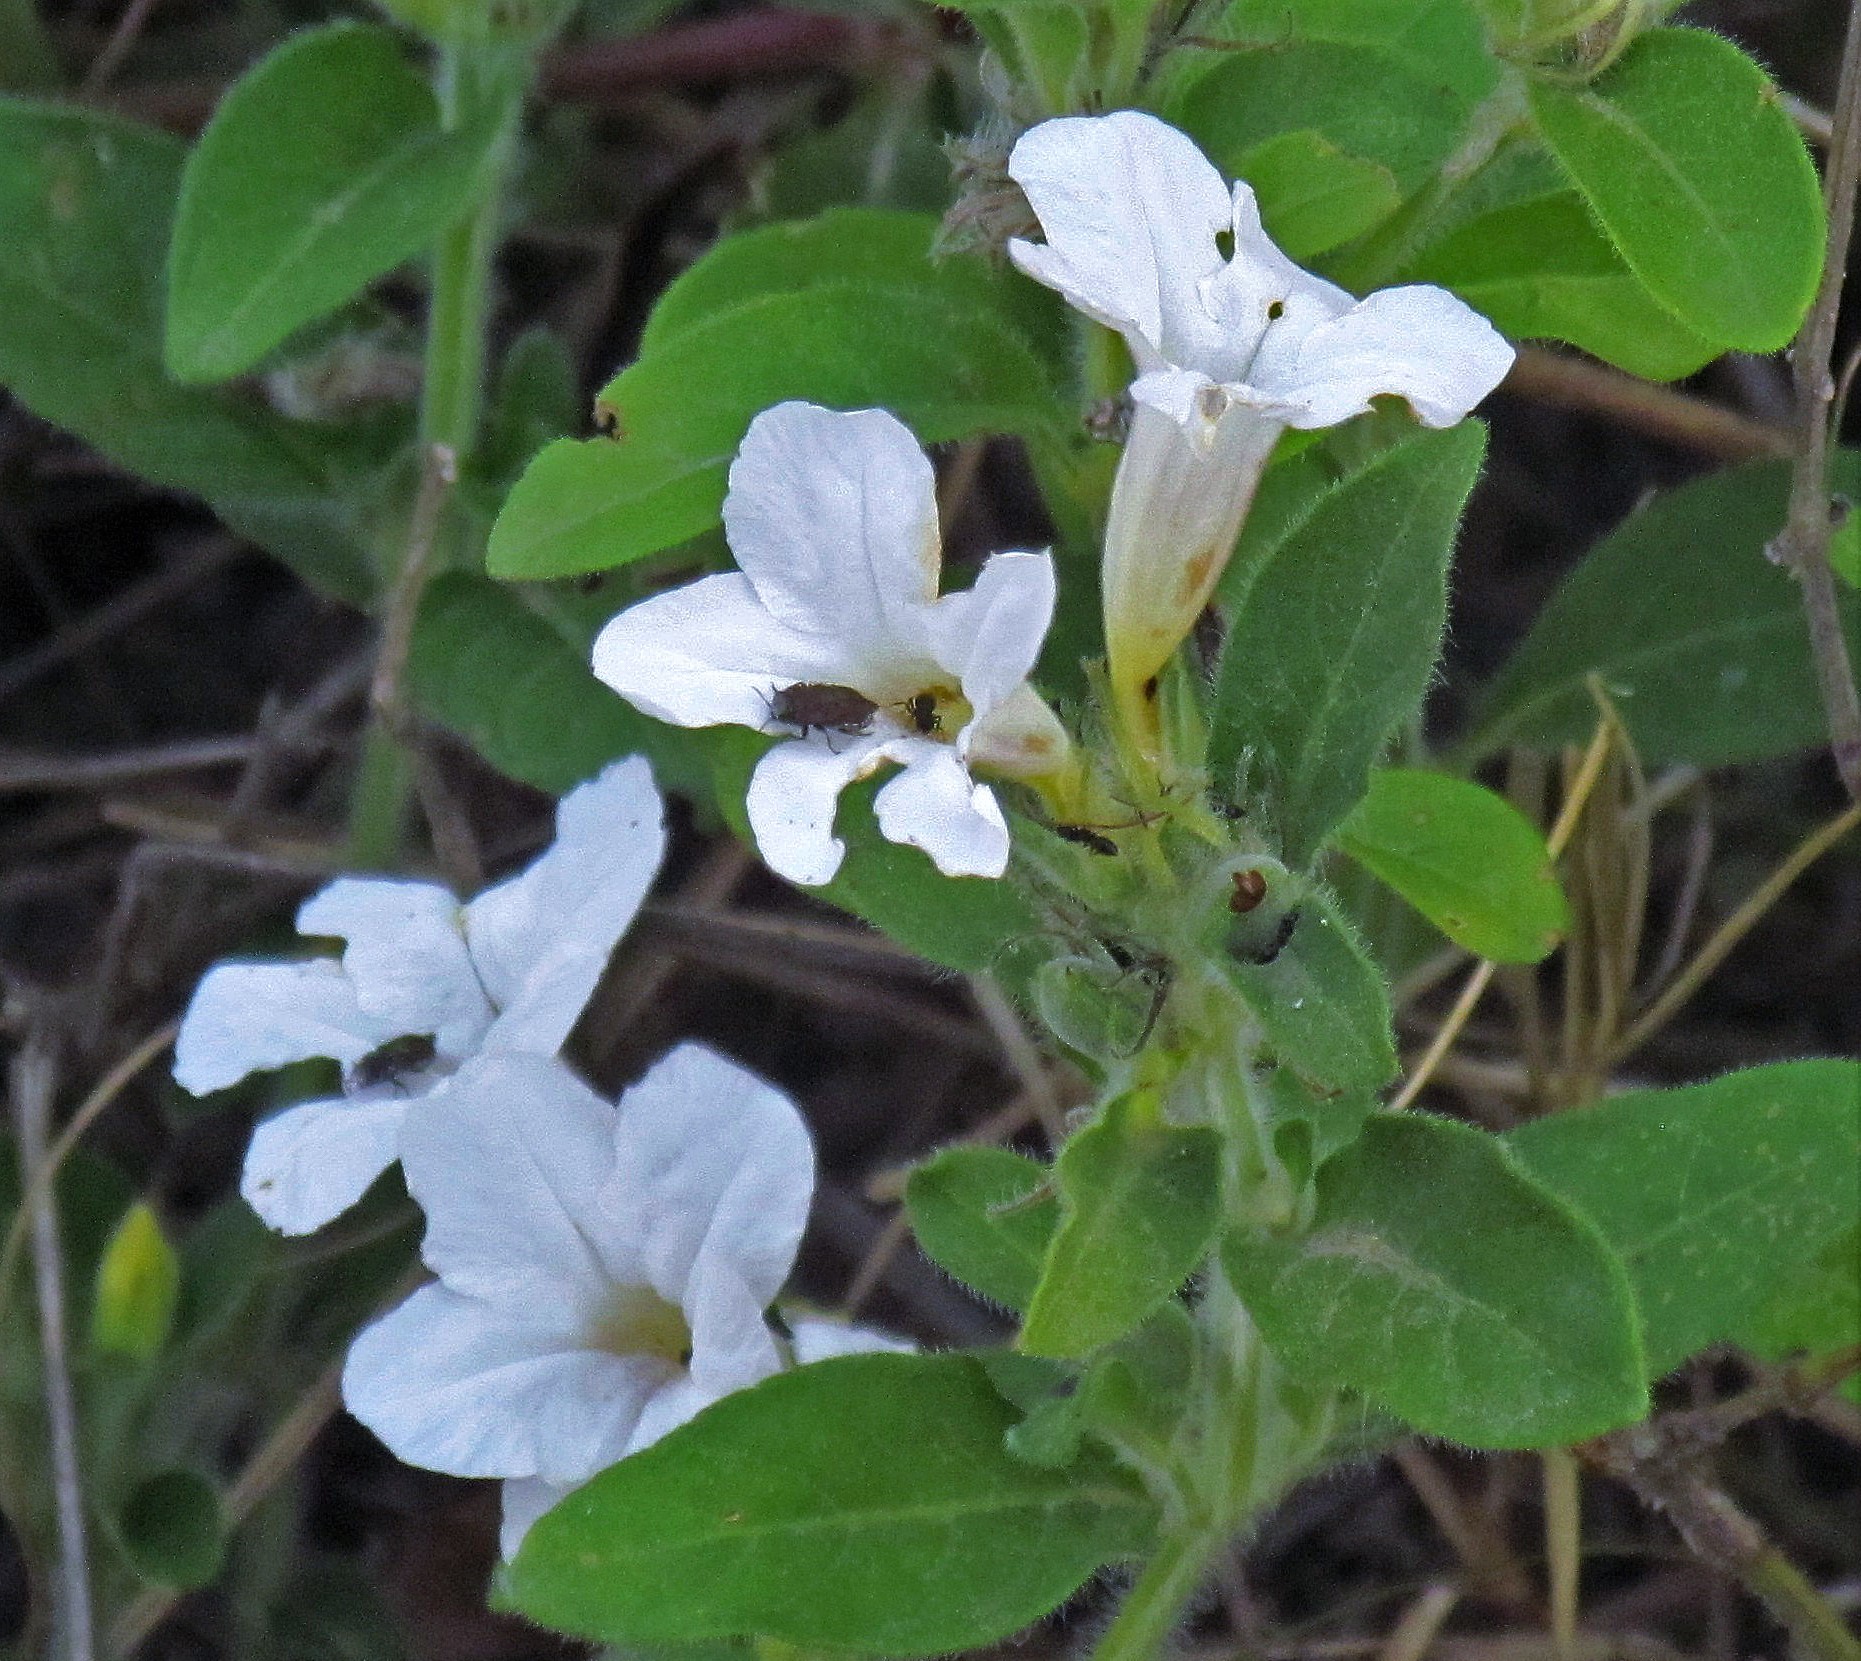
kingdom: Plantae
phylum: Tracheophyta
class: Magnoliopsida
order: Lamiales
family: Acanthaceae
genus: Ruellia
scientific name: Ruellia geminiflora
